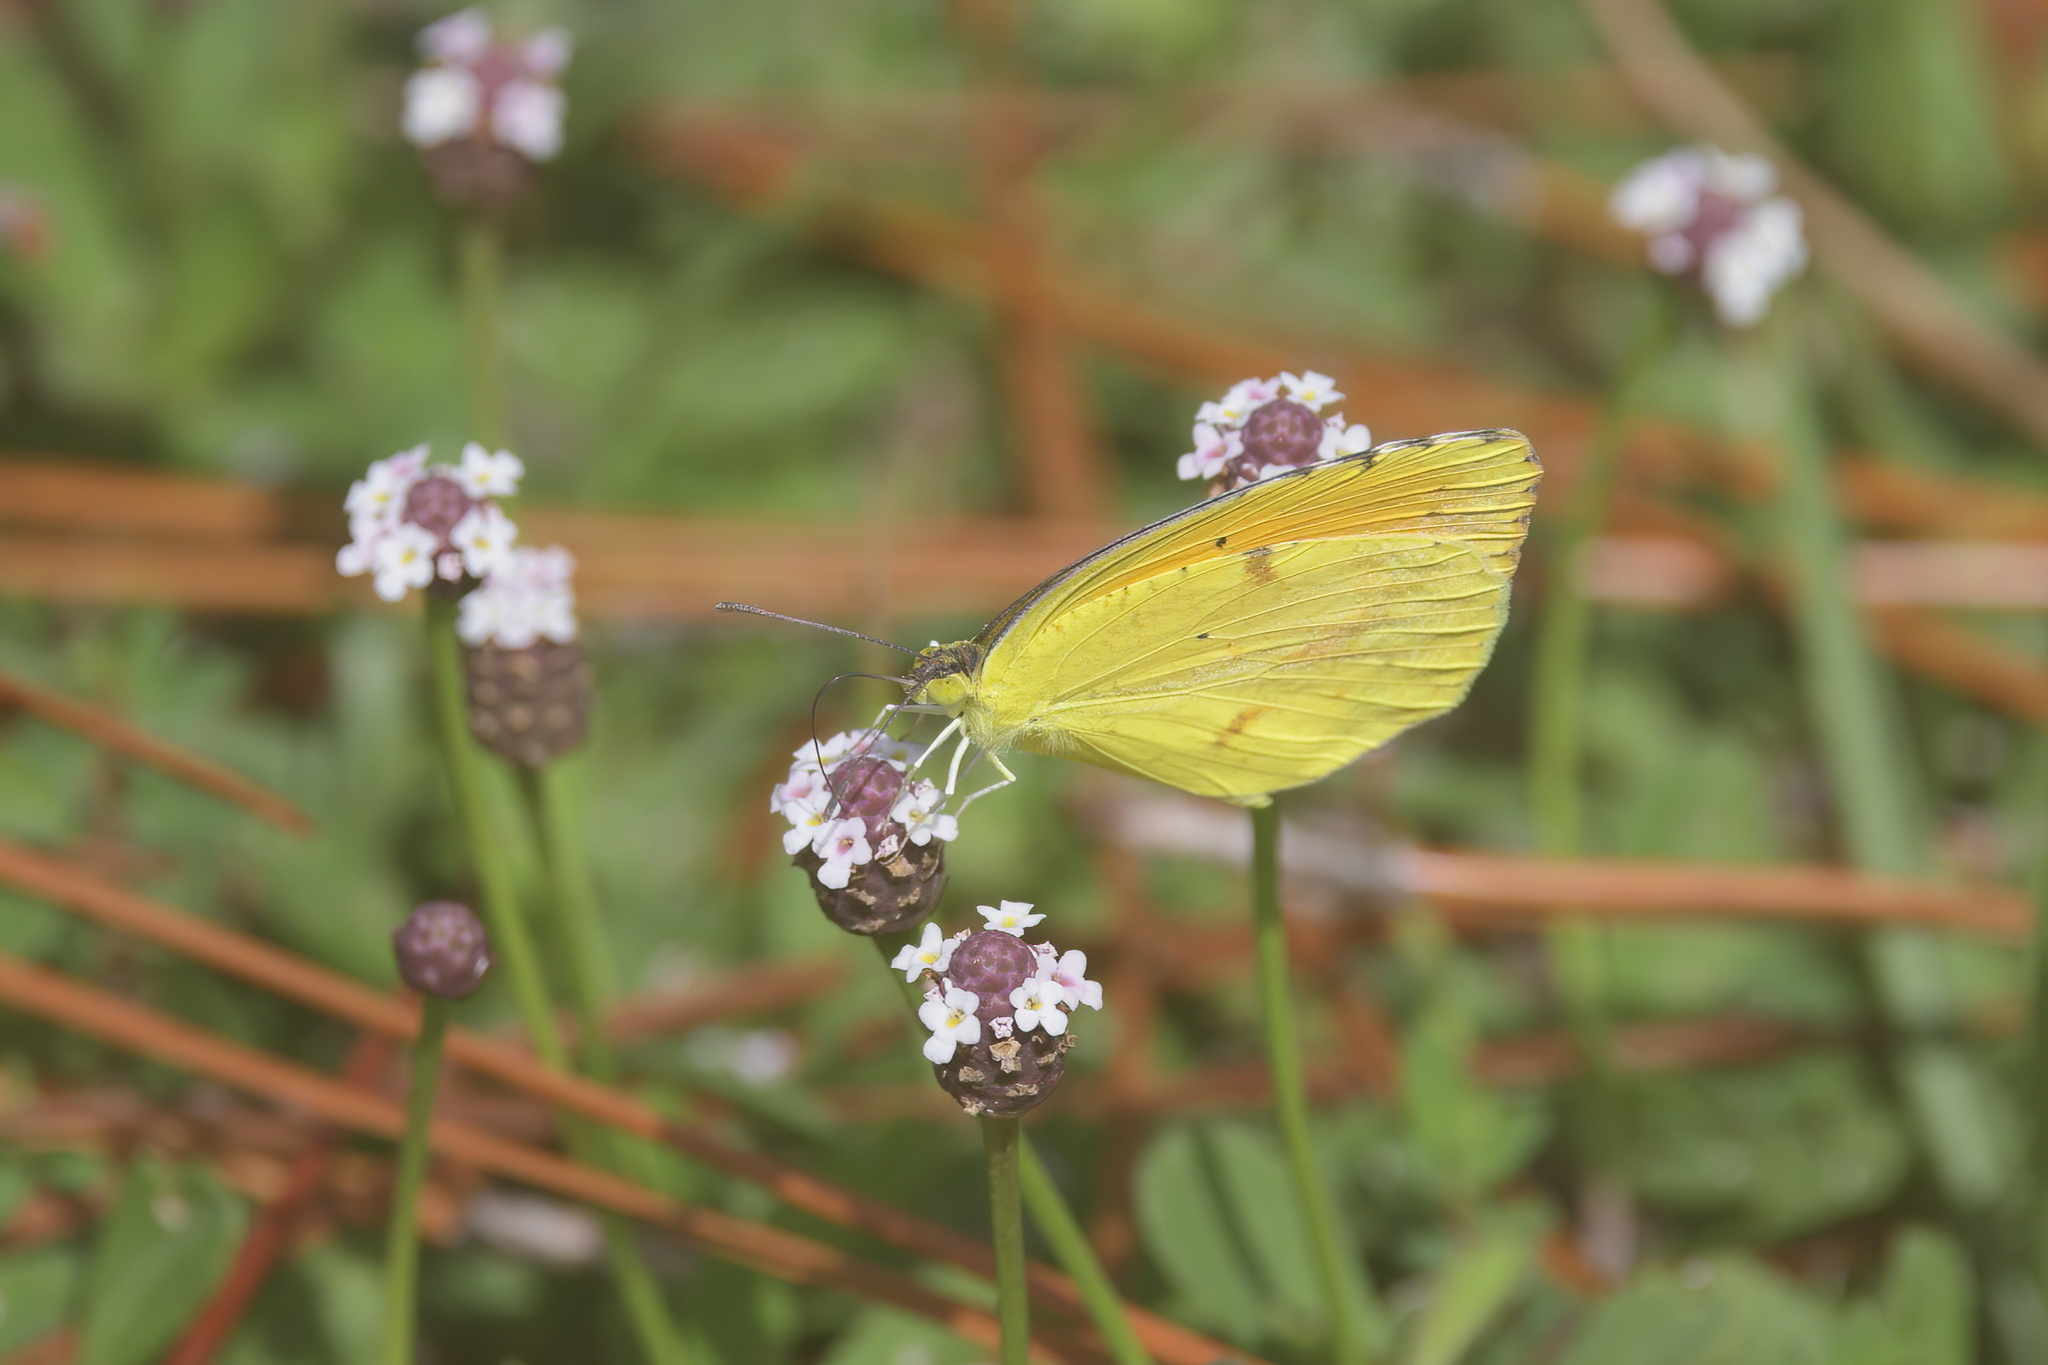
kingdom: Animalia
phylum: Arthropoda
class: Insecta
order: Lepidoptera
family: Pieridae
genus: Abaeis
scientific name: Abaeis nicippe
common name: Sleepy orange
